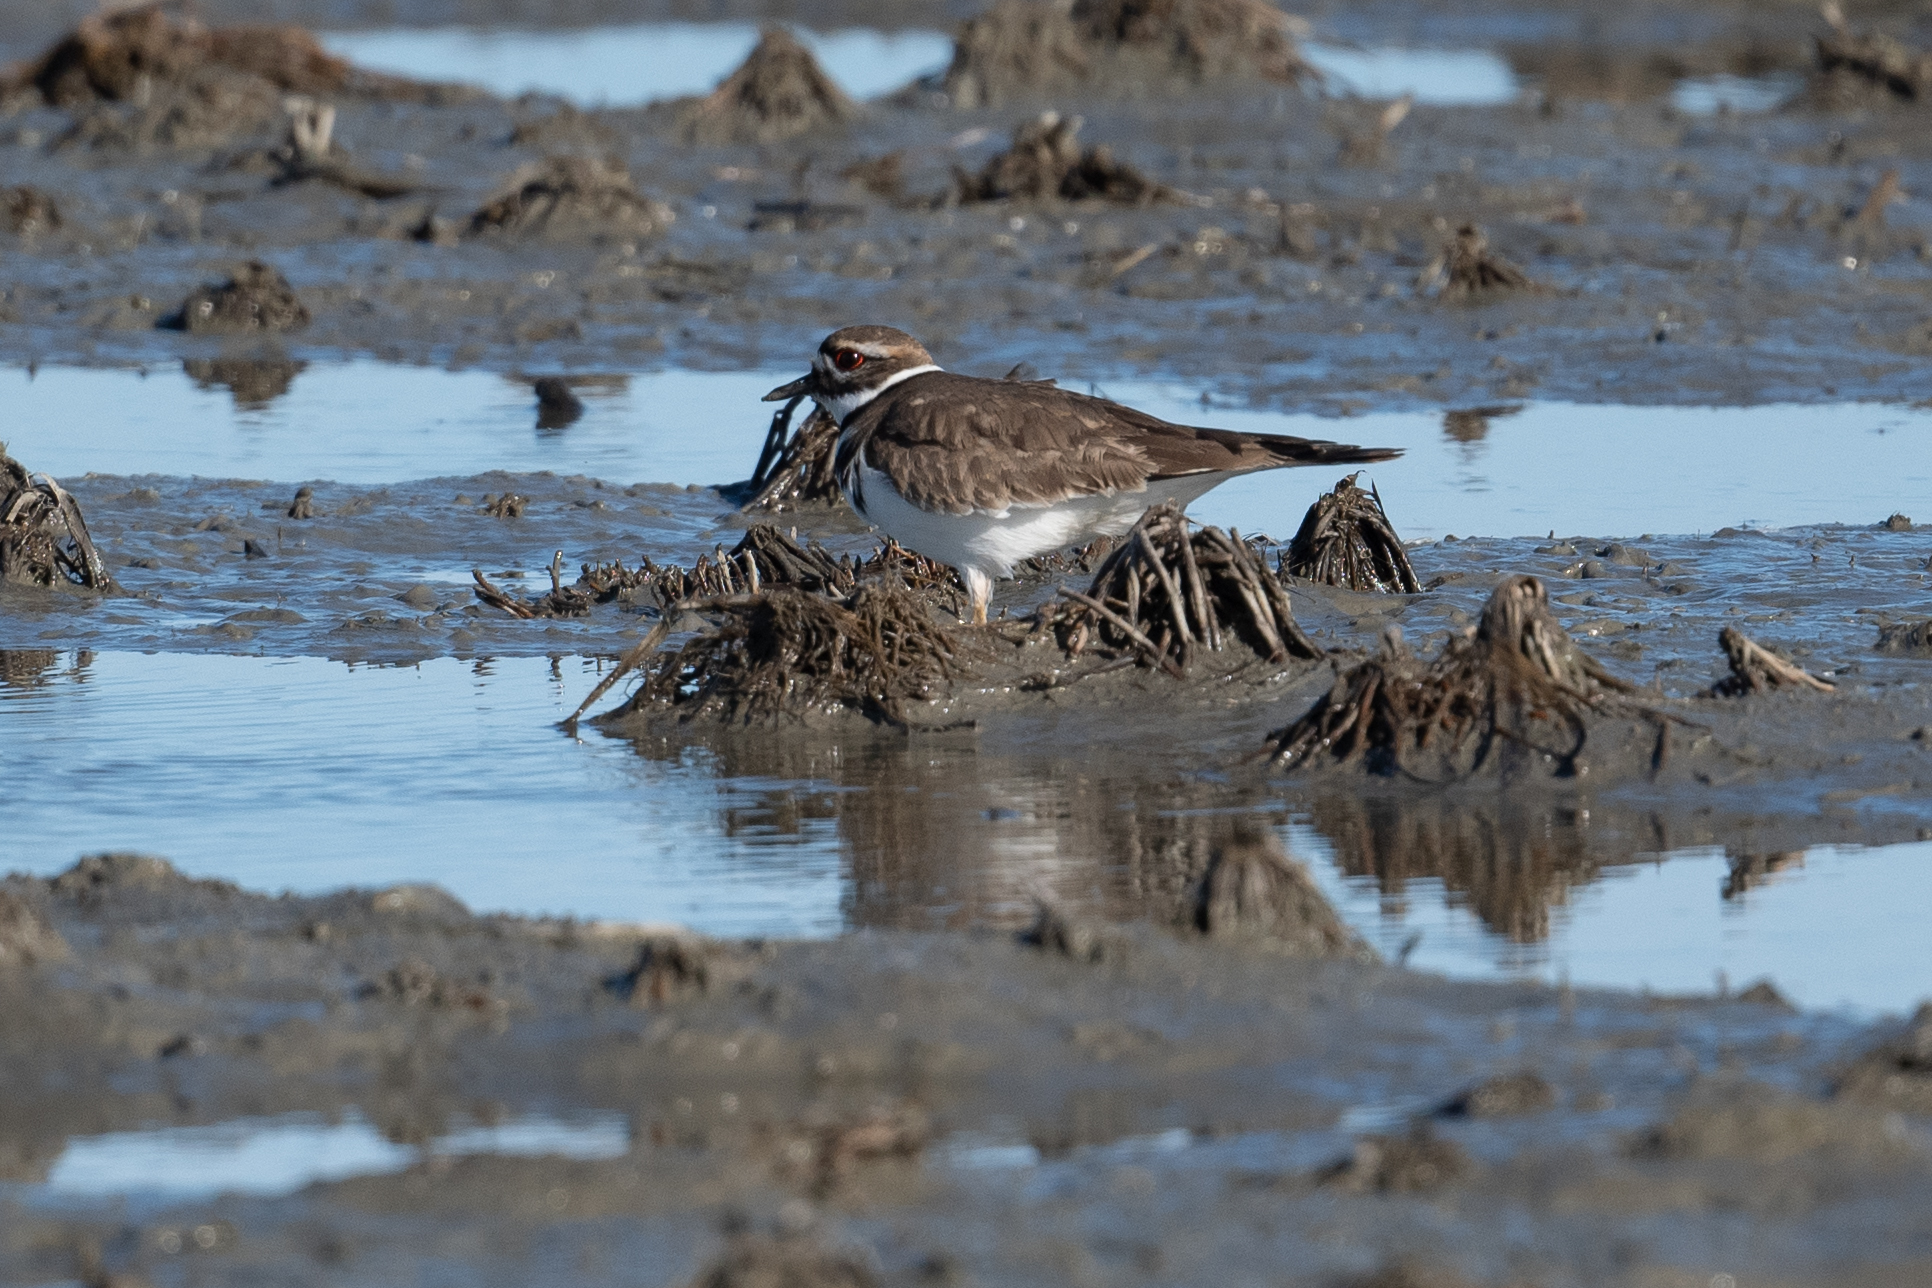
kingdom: Animalia
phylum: Chordata
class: Aves
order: Charadriiformes
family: Charadriidae
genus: Charadrius
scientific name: Charadrius vociferus
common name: Killdeer
